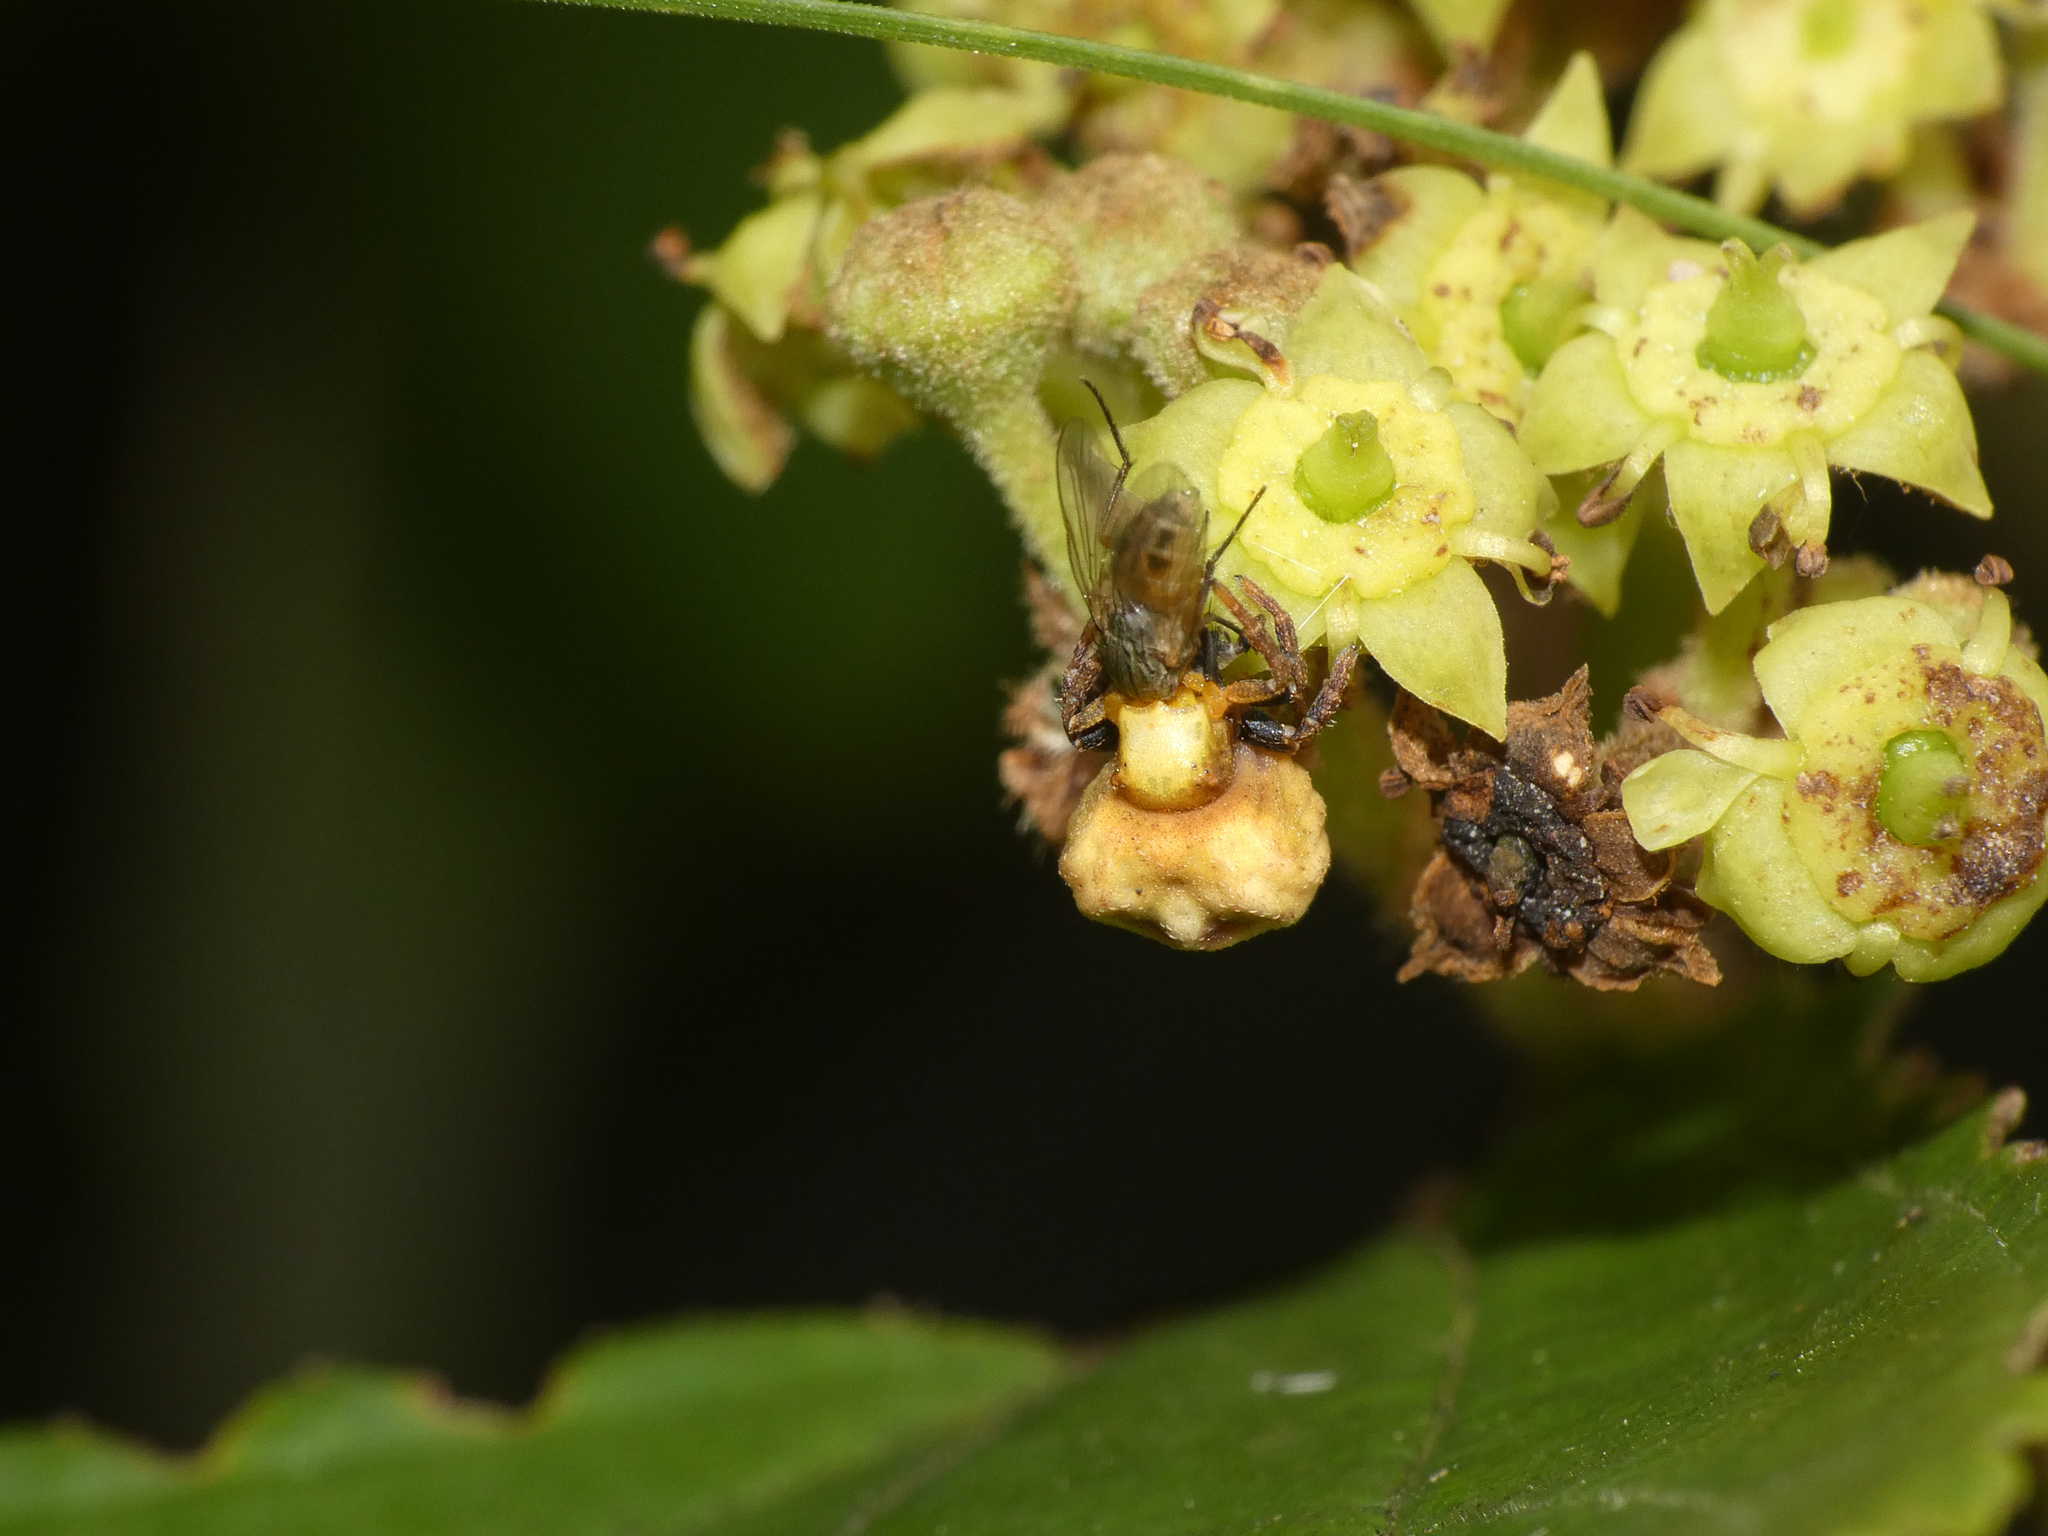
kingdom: Animalia
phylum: Arthropoda
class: Arachnida
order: Araneae
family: Thomisidae
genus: Parabomis
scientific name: Parabomis megae
